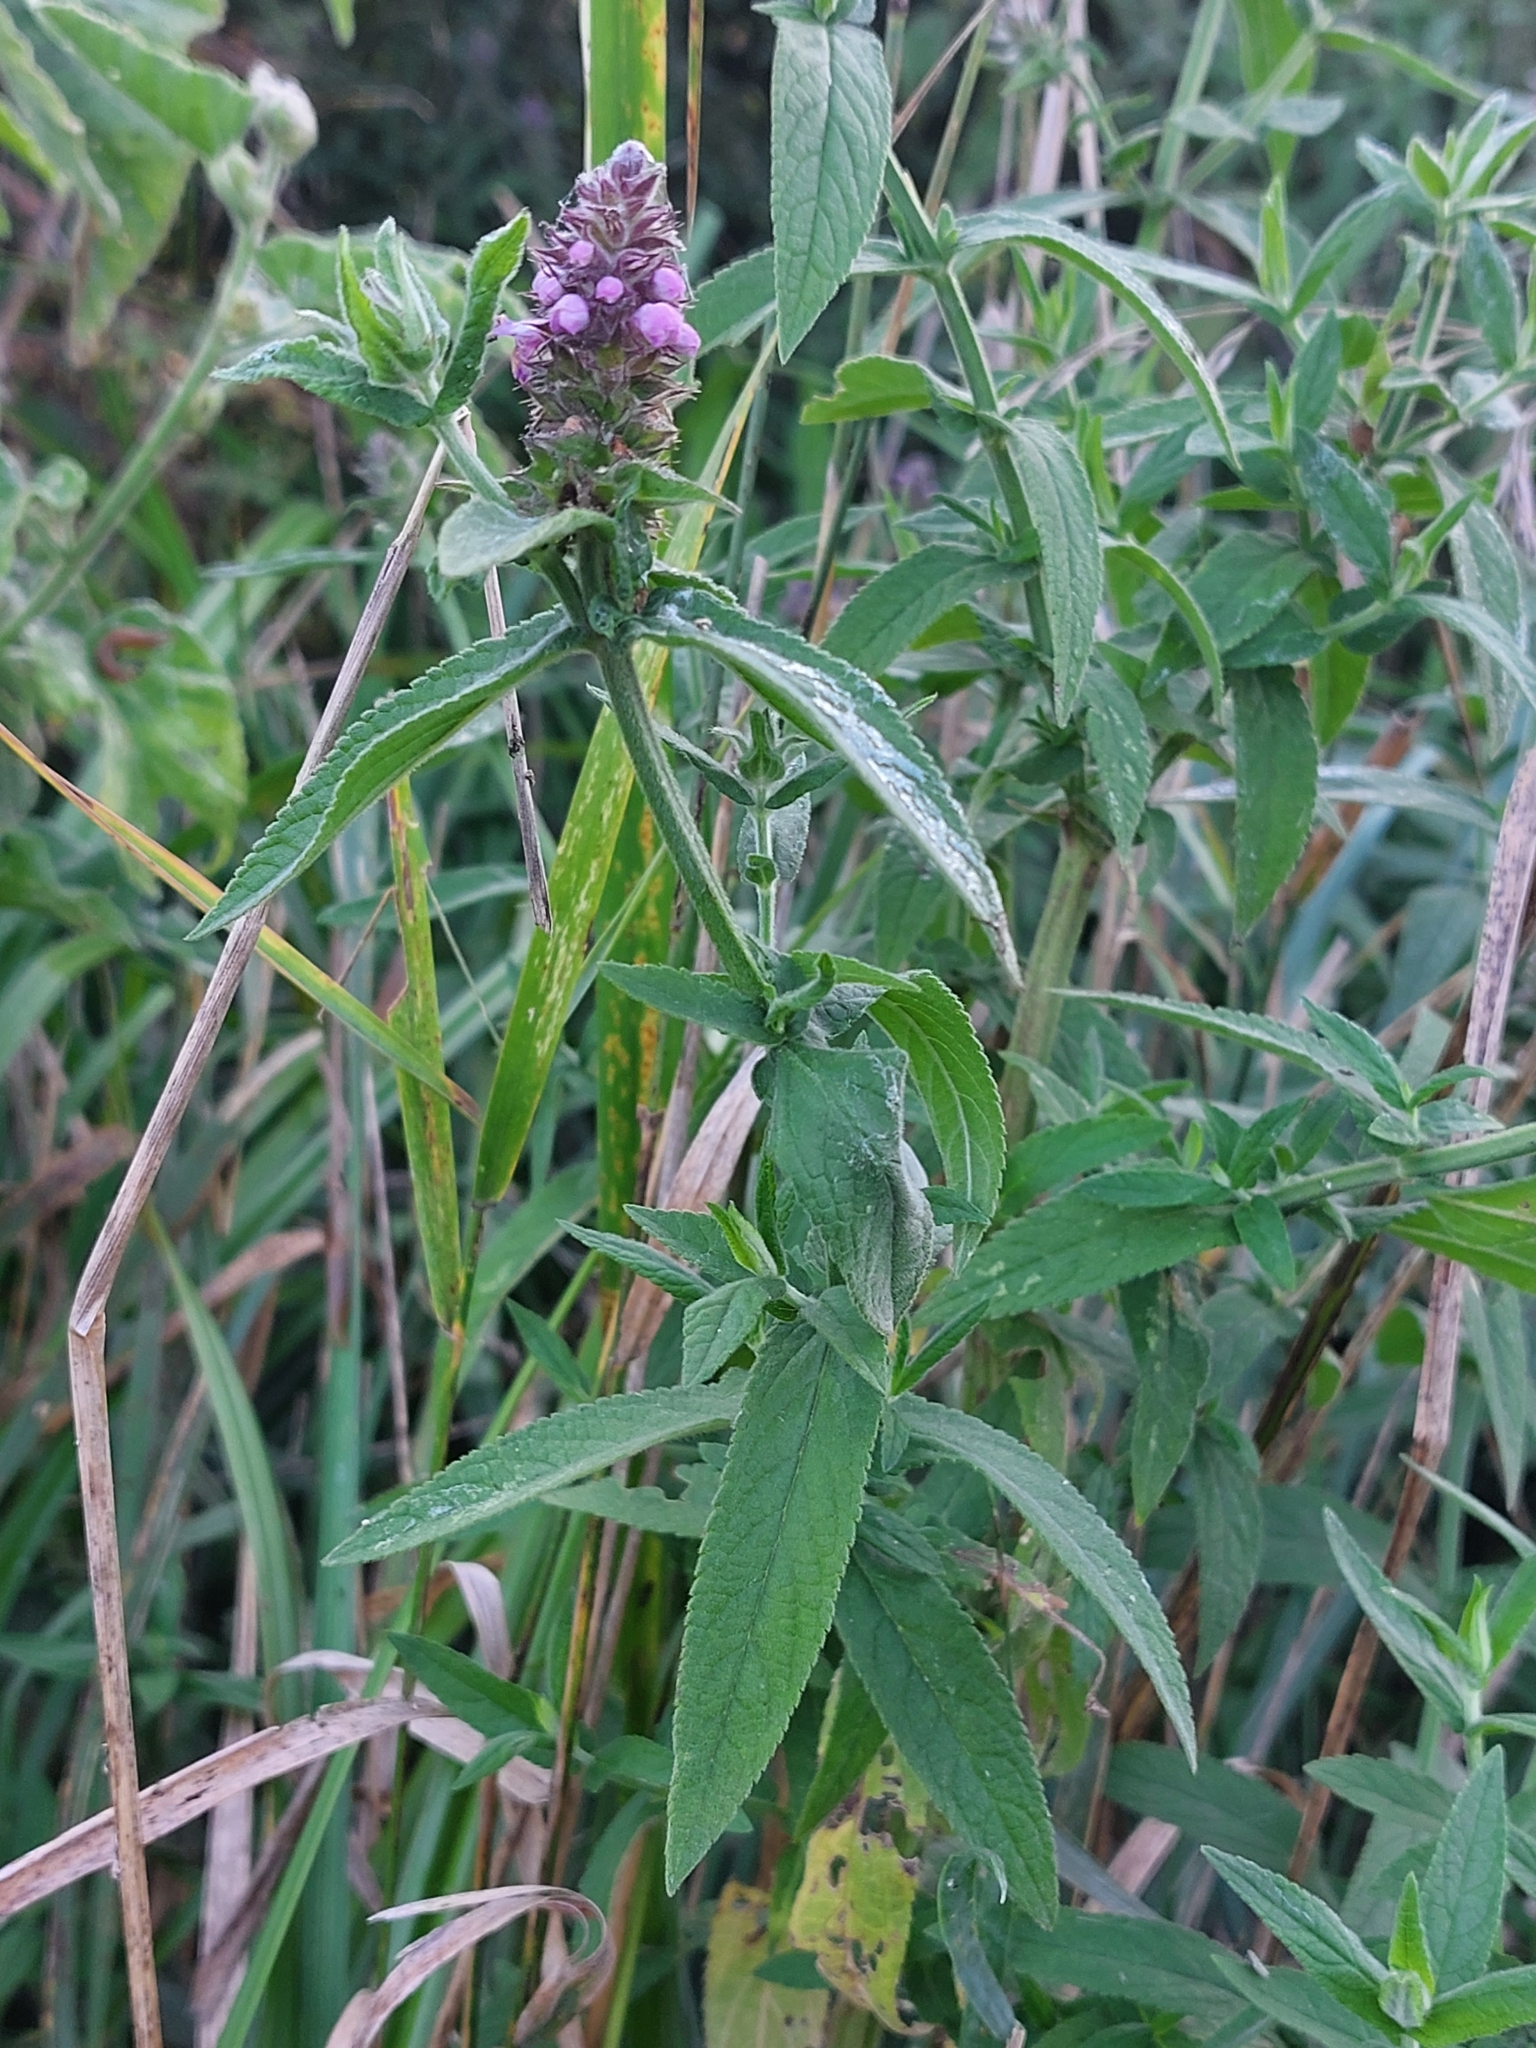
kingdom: Plantae
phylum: Tracheophyta
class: Magnoliopsida
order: Lamiales
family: Lamiaceae
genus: Stachys
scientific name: Stachys palustris
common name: Marsh woundwort
